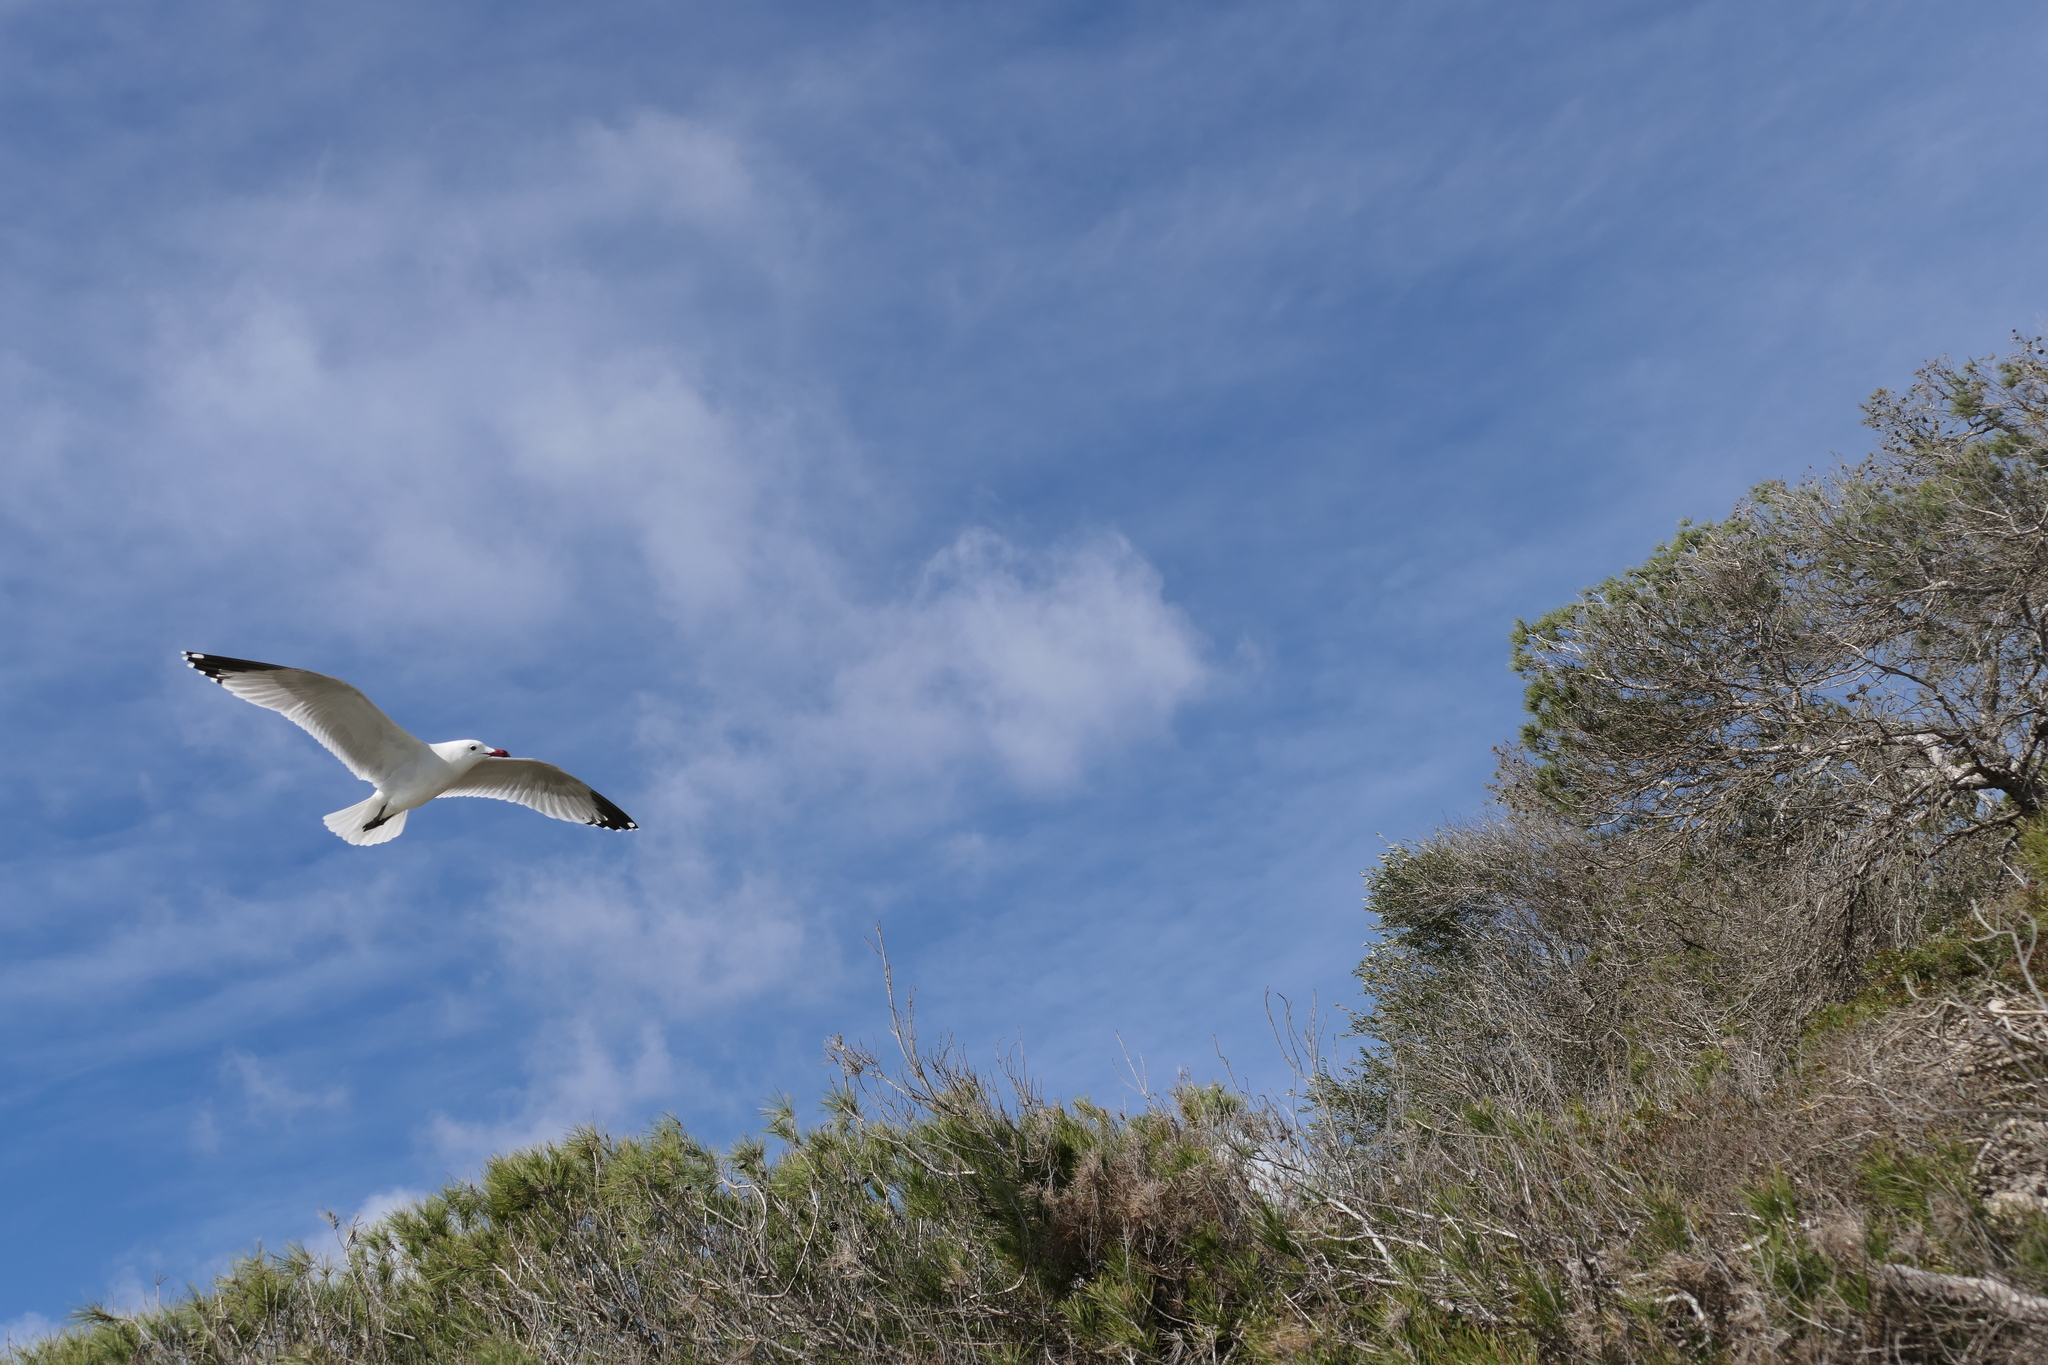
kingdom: Animalia
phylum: Chordata
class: Aves
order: Charadriiformes
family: Laridae
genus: Ichthyaetus
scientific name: Ichthyaetus audouinii
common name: Audouin's gull
